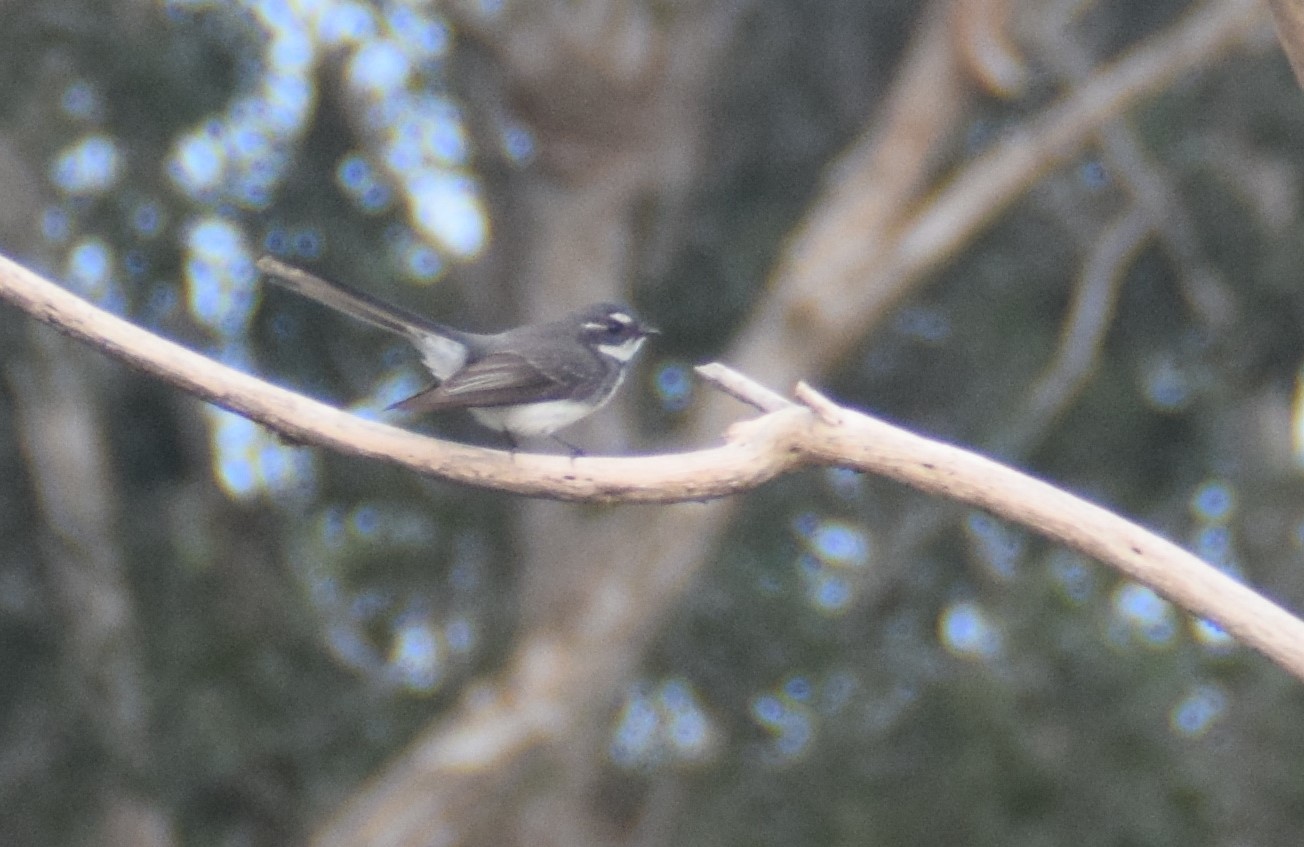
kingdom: Animalia
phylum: Chordata
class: Aves
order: Passeriformes
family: Rhipiduridae
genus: Rhipidura
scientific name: Rhipidura albiscapa
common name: Grey fantail
